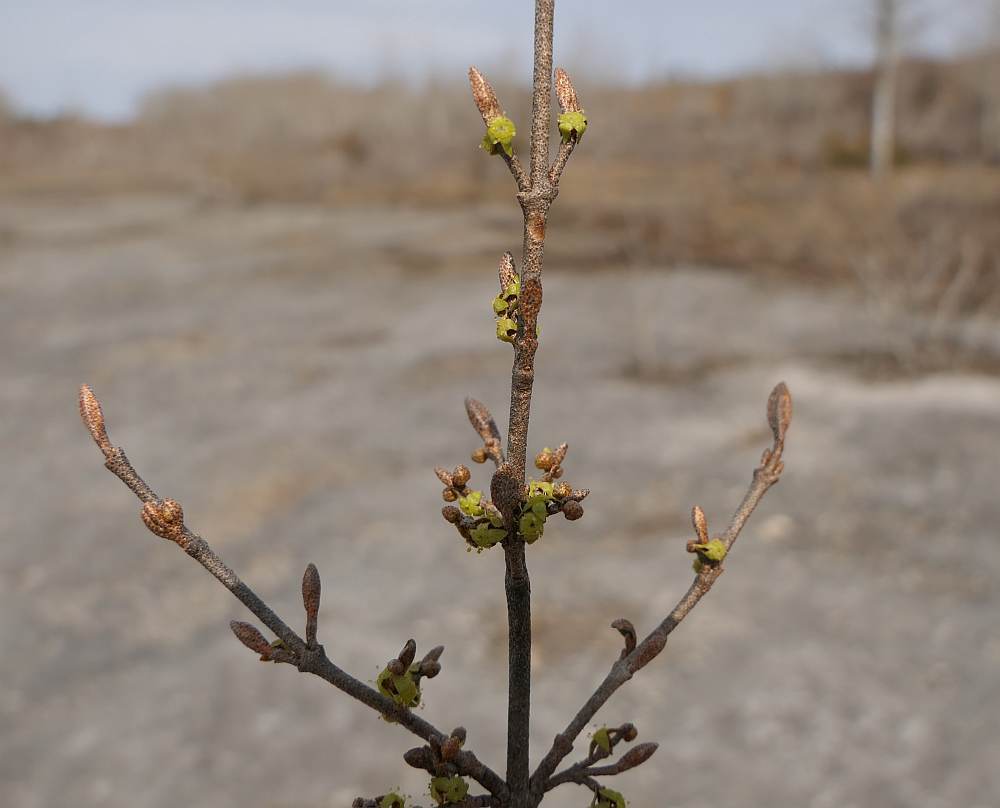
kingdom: Plantae
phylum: Tracheophyta
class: Magnoliopsida
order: Rosales
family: Elaeagnaceae
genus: Shepherdia
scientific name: Shepherdia canadensis
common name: Soapberry
